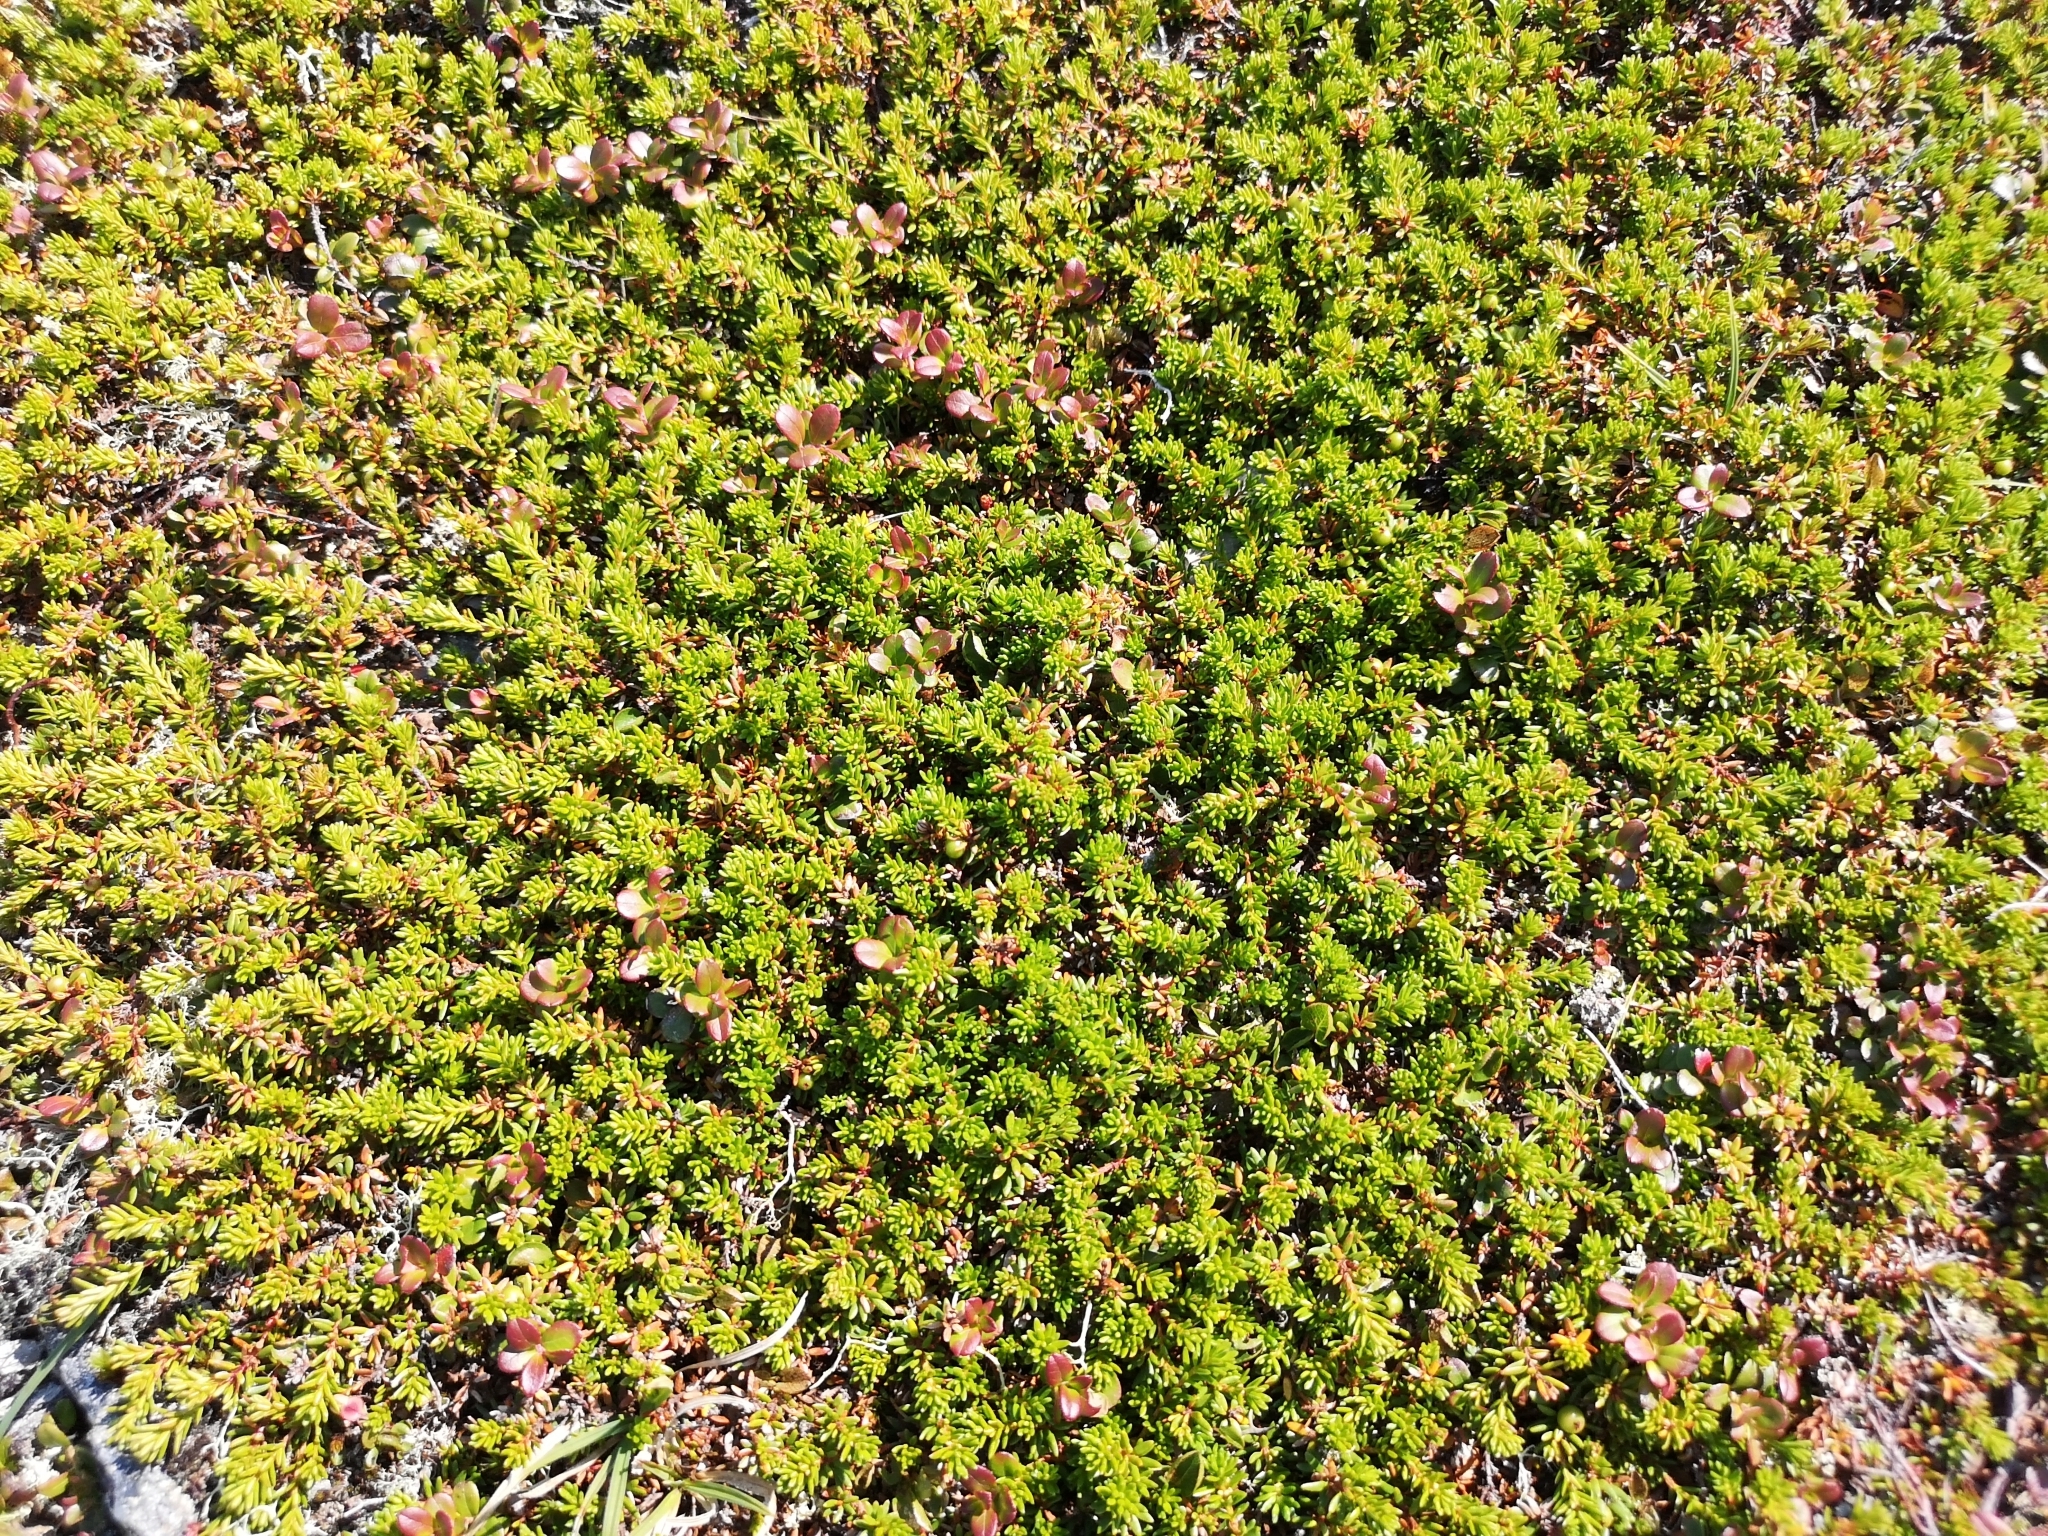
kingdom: Plantae
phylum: Tracheophyta
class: Magnoliopsida
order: Ericales
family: Ericaceae
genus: Empetrum
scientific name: Empetrum nigrum
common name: Black crowberry
